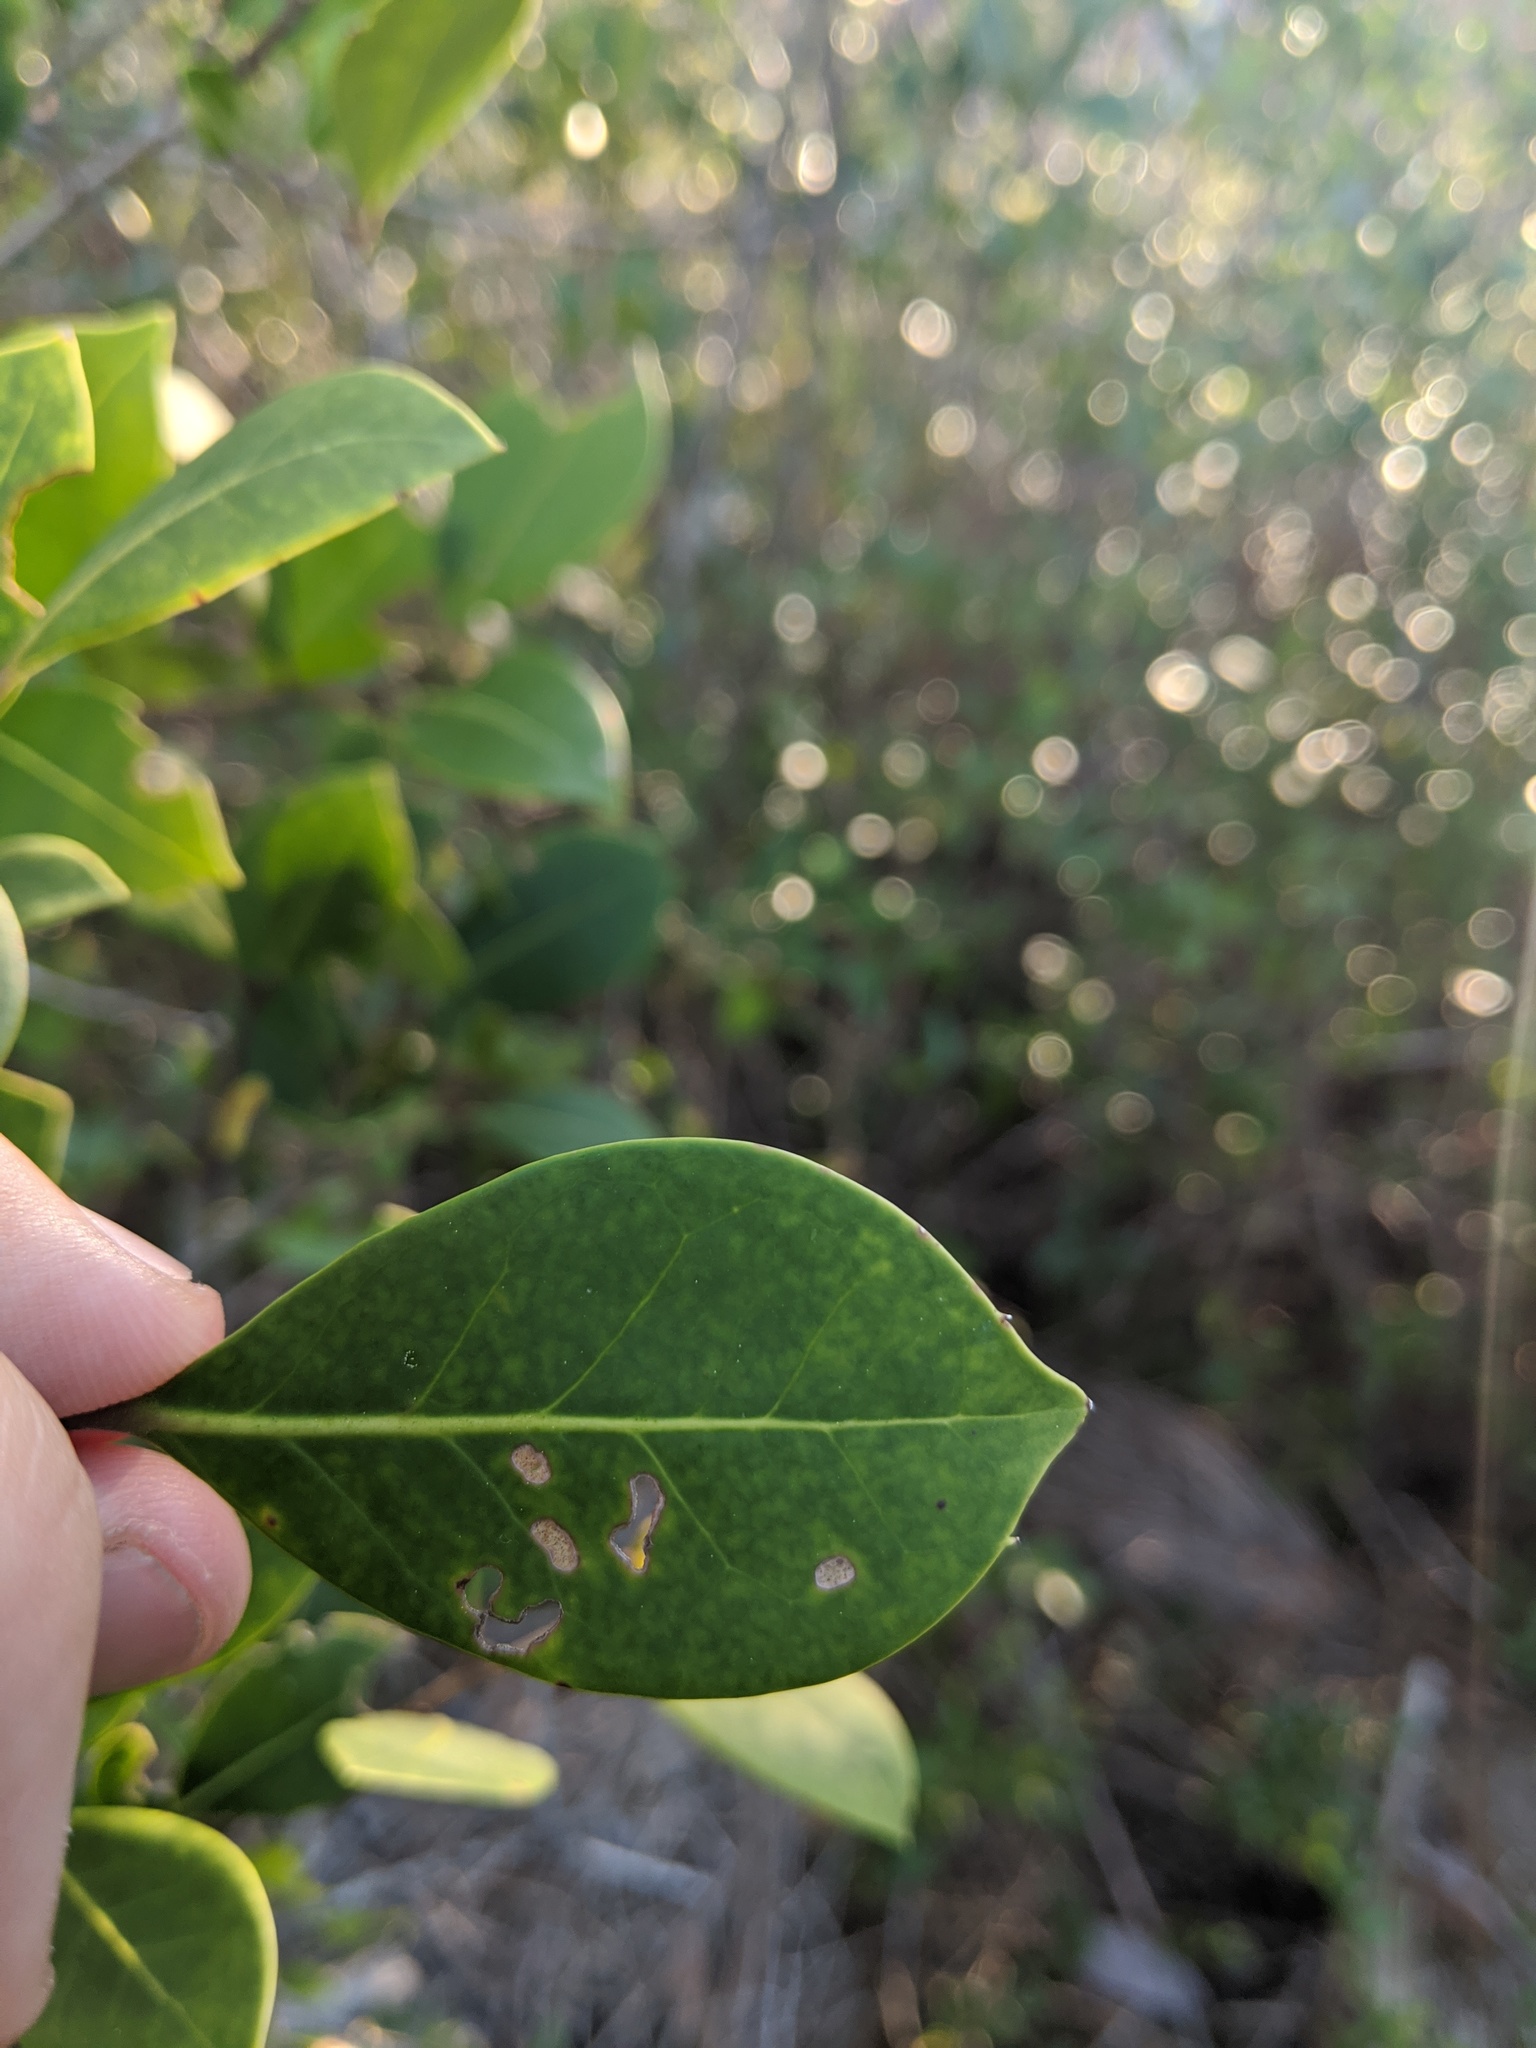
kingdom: Plantae
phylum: Tracheophyta
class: Magnoliopsida
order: Aquifoliales
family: Aquifoliaceae
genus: Ilex
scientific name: Ilex coriacea
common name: Sweet gallberry
